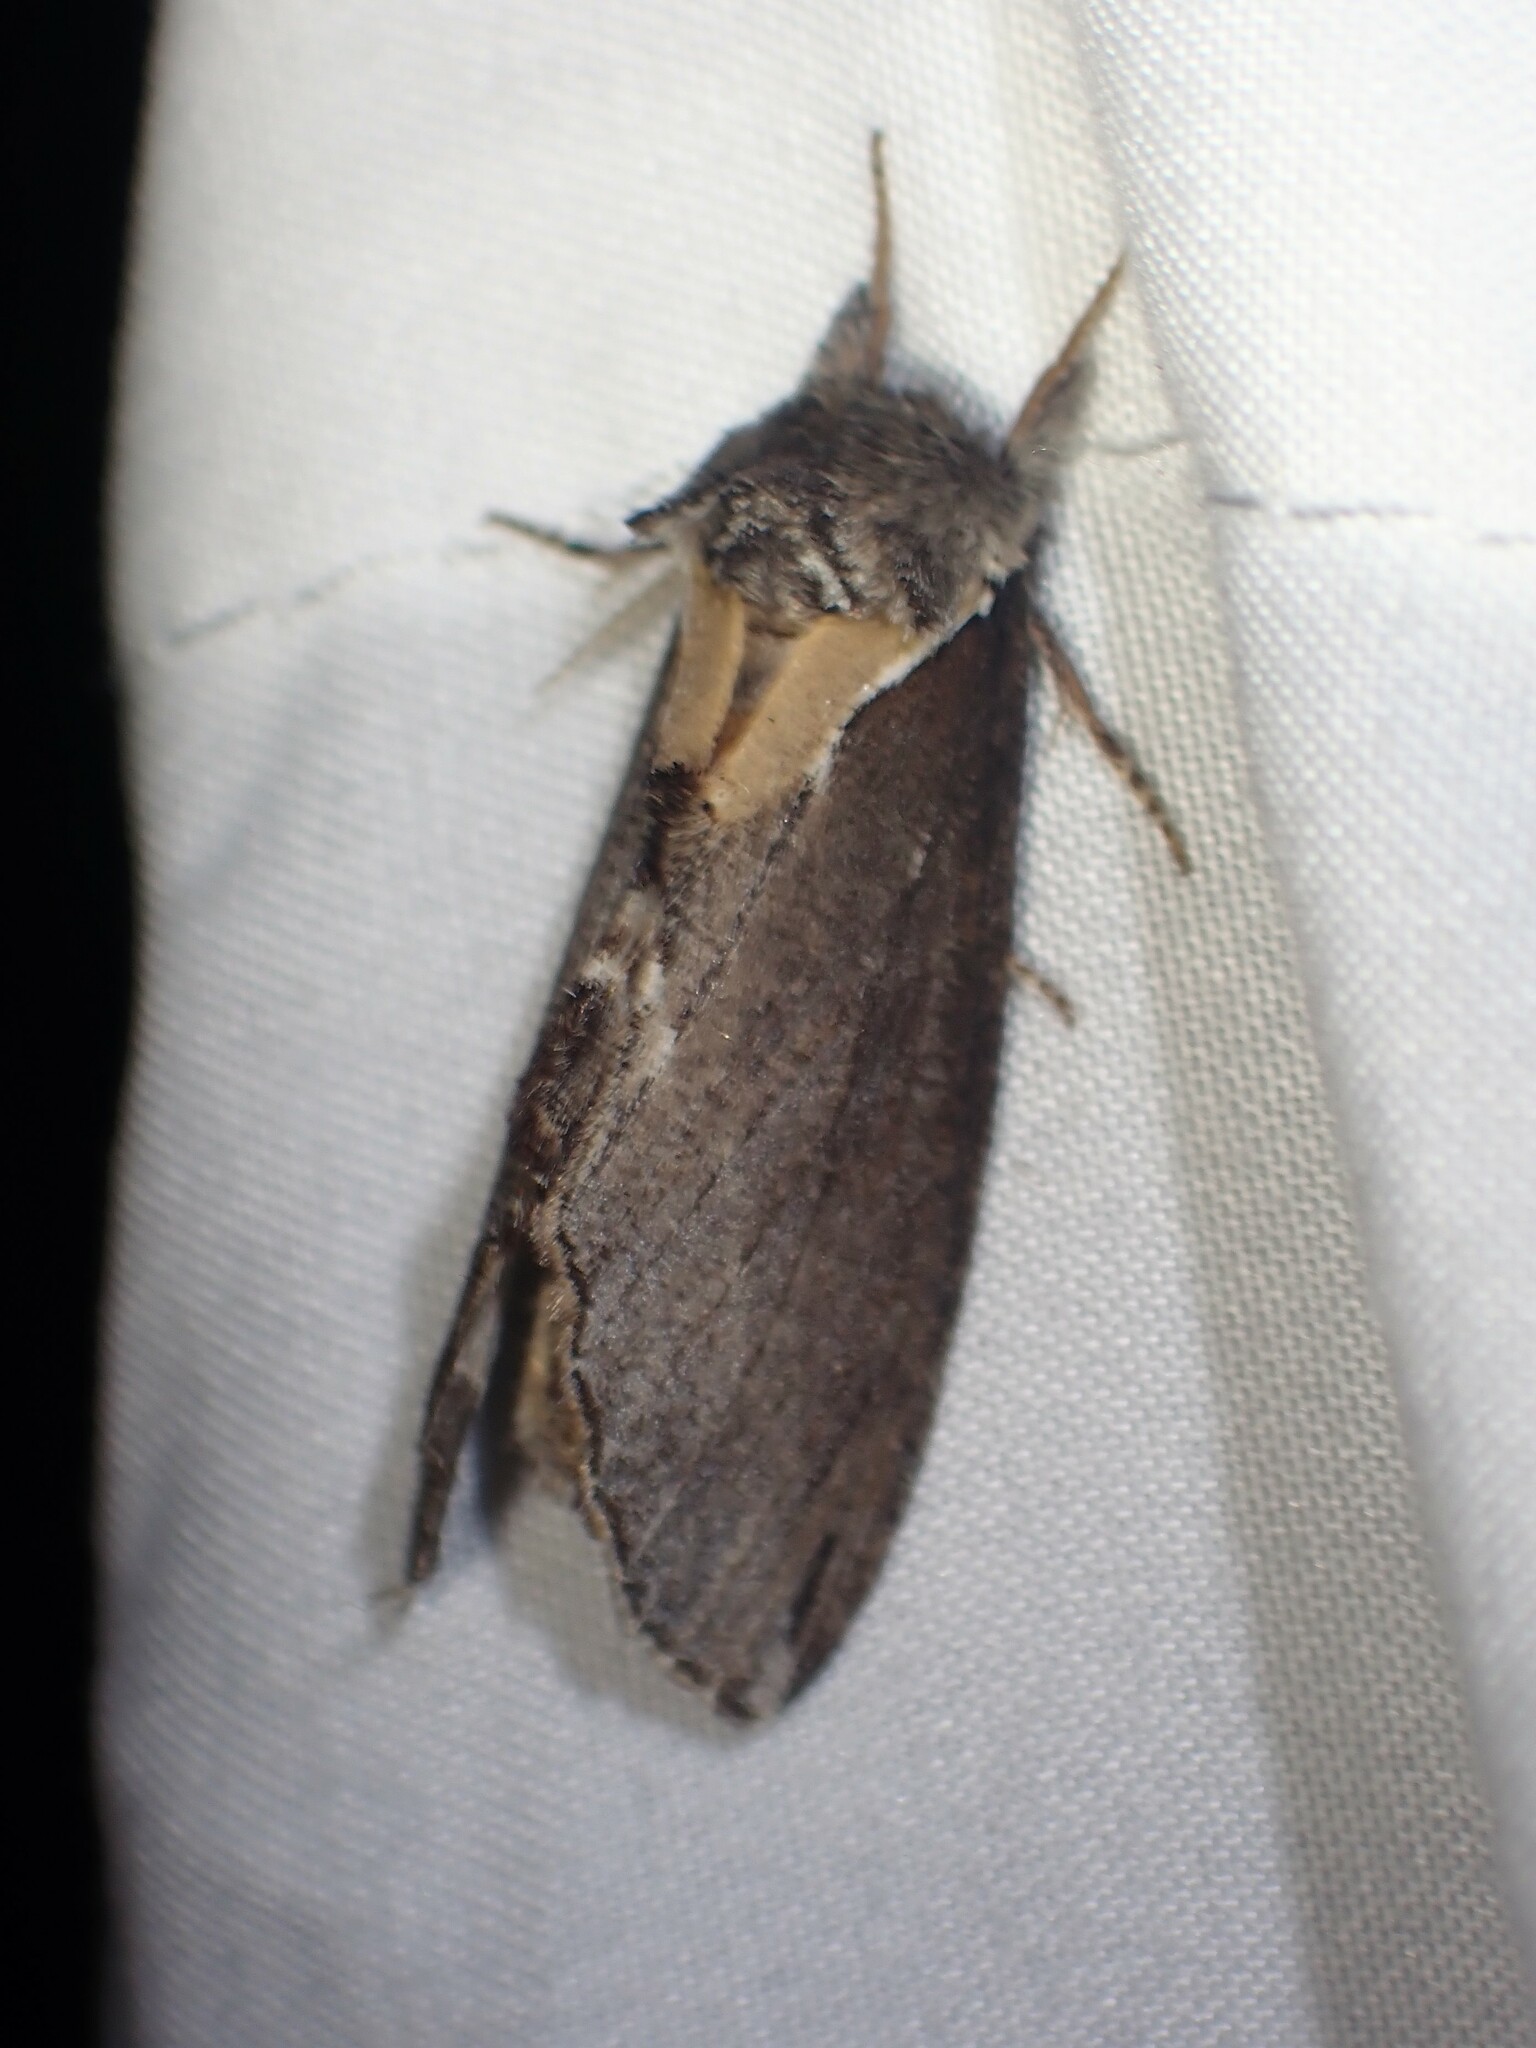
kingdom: Animalia
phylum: Arthropoda
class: Insecta
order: Lepidoptera
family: Notodontidae
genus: Pheosidea
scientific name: Pheosidea elegans
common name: Elegant prominent
